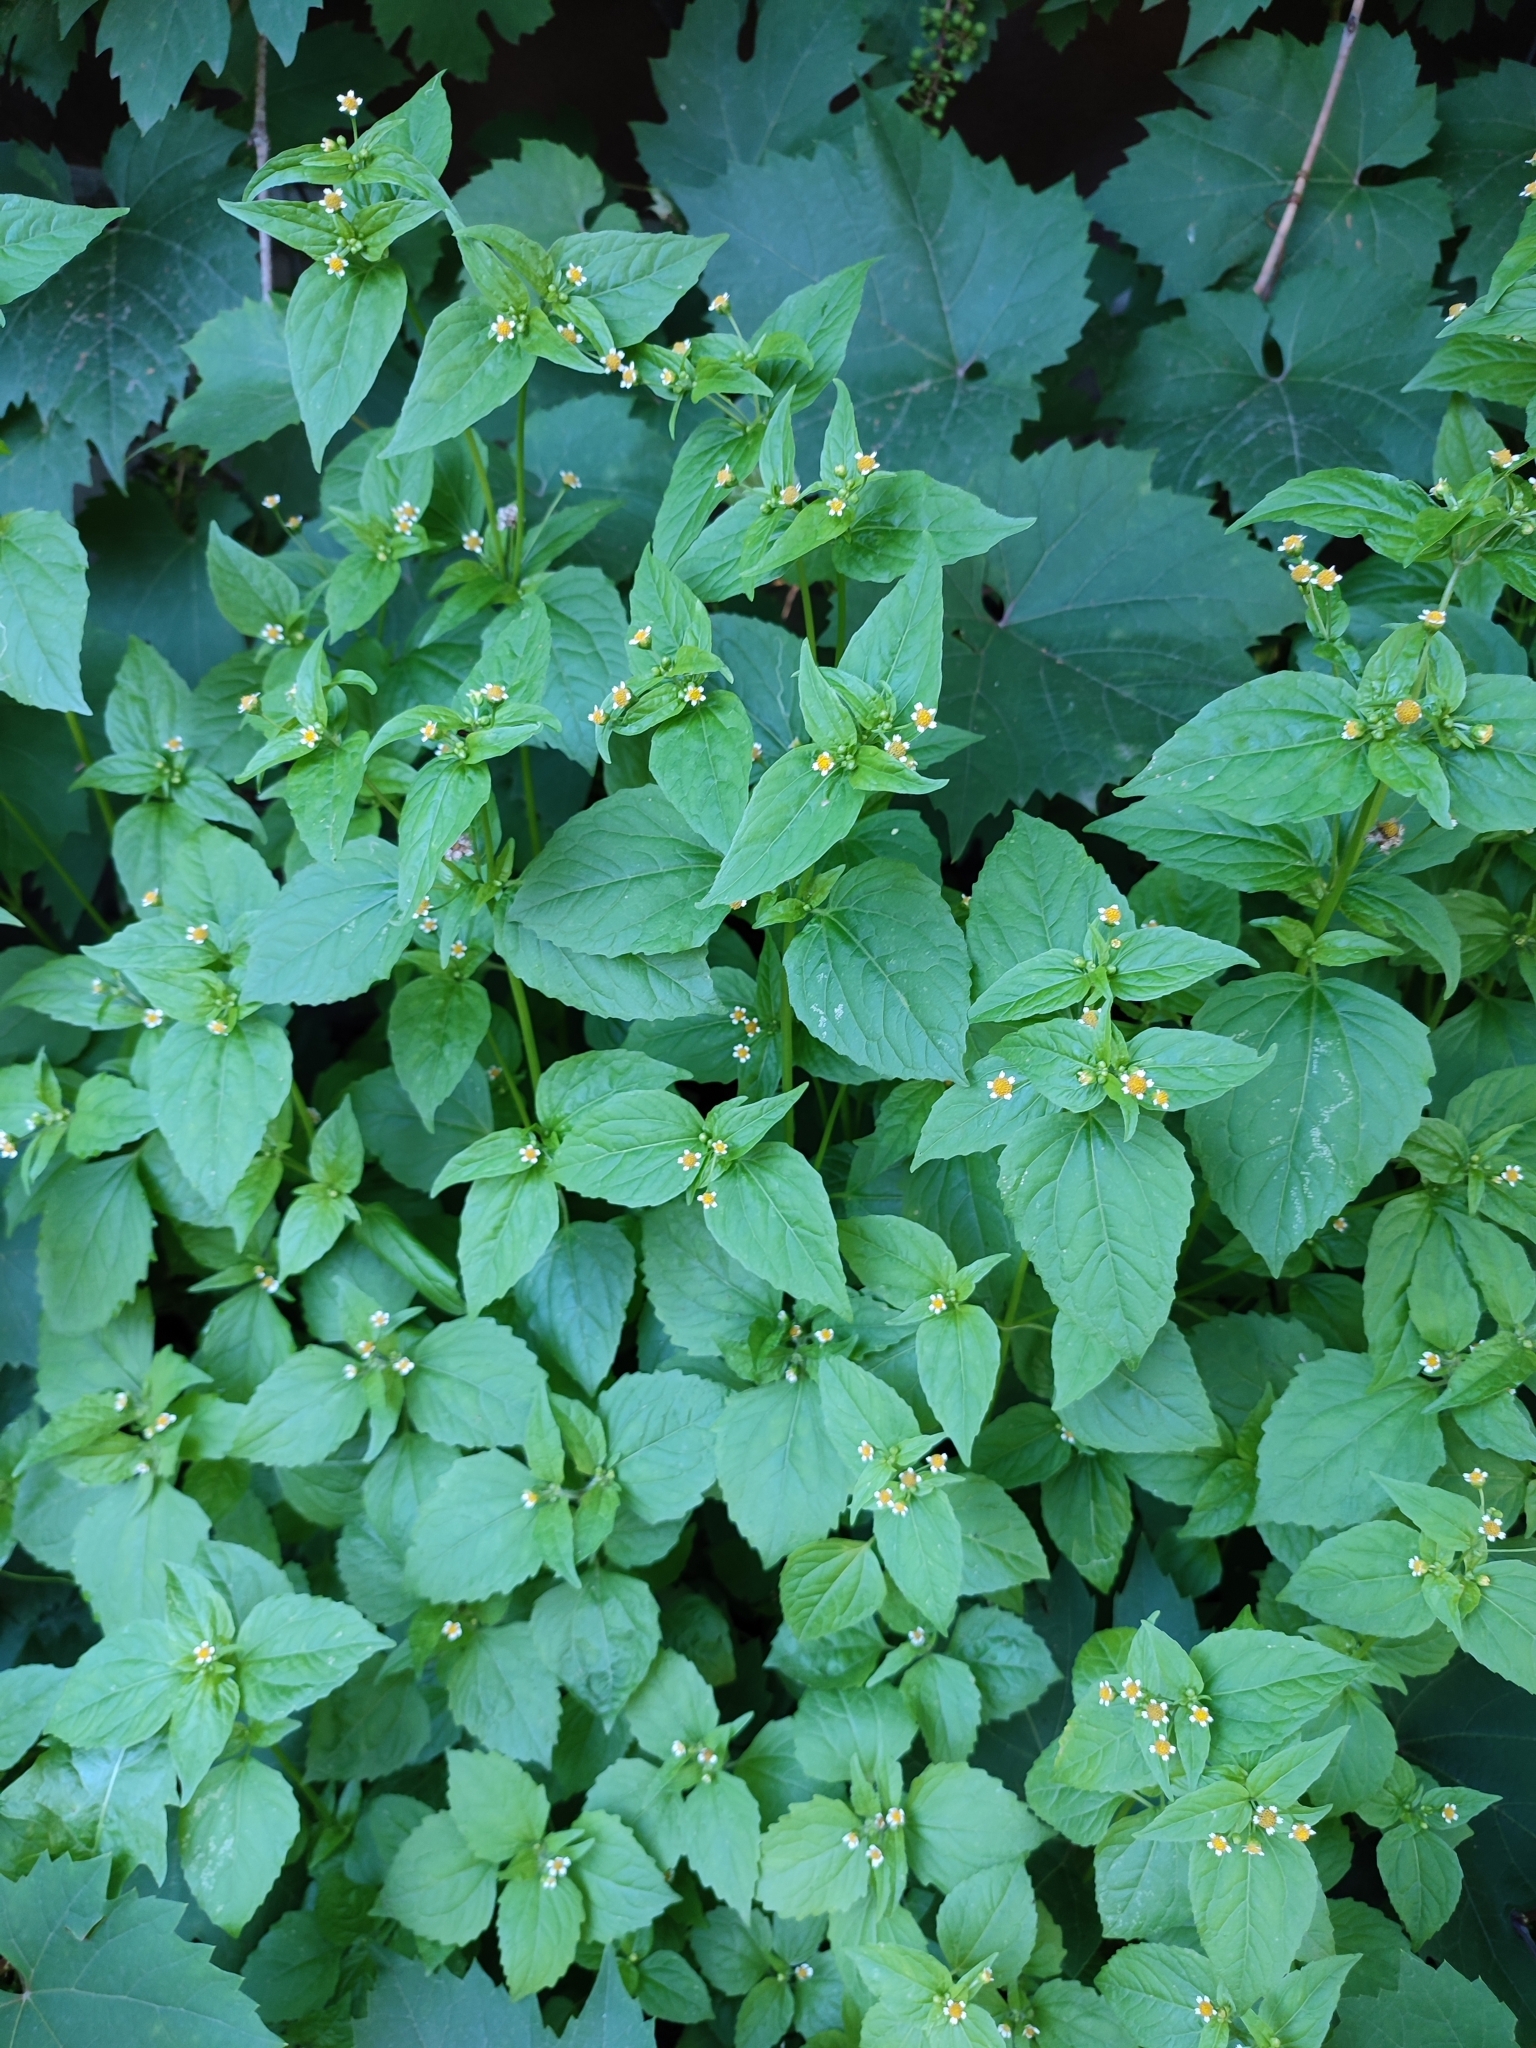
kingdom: Plantae
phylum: Tracheophyta
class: Magnoliopsida
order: Asterales
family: Asteraceae
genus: Galinsoga
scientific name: Galinsoga parviflora
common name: Gallant soldier
